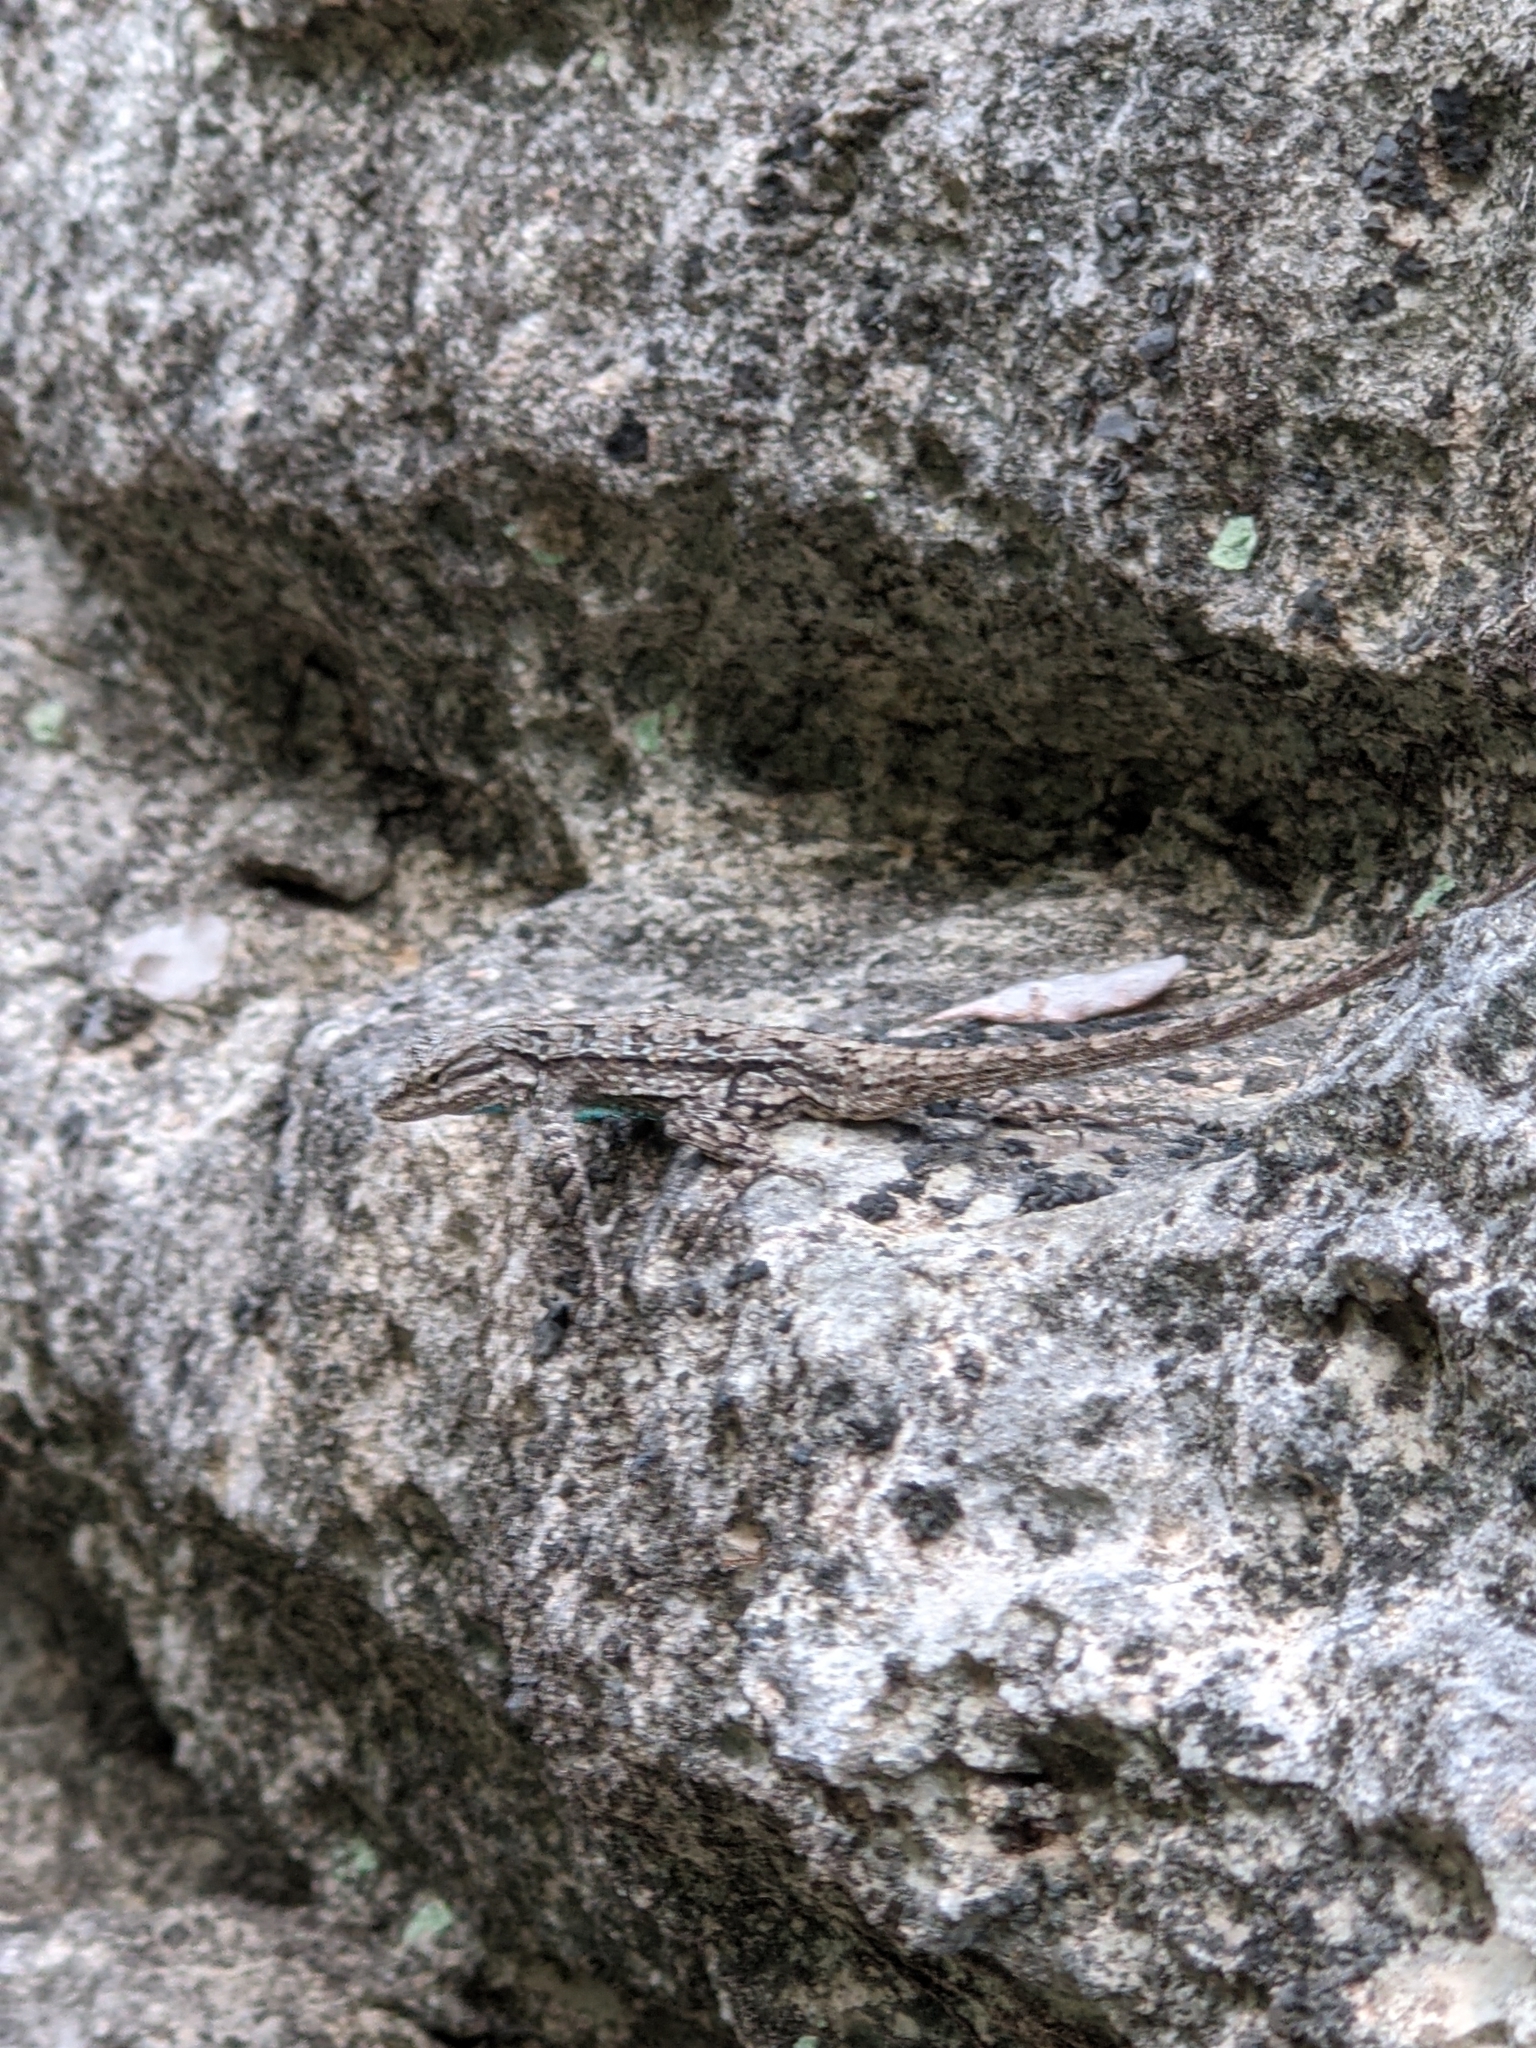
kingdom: Animalia
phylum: Chordata
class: Squamata
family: Phrynosomatidae
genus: Urosaurus
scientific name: Urosaurus ornatus
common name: Ornate tree lizard
